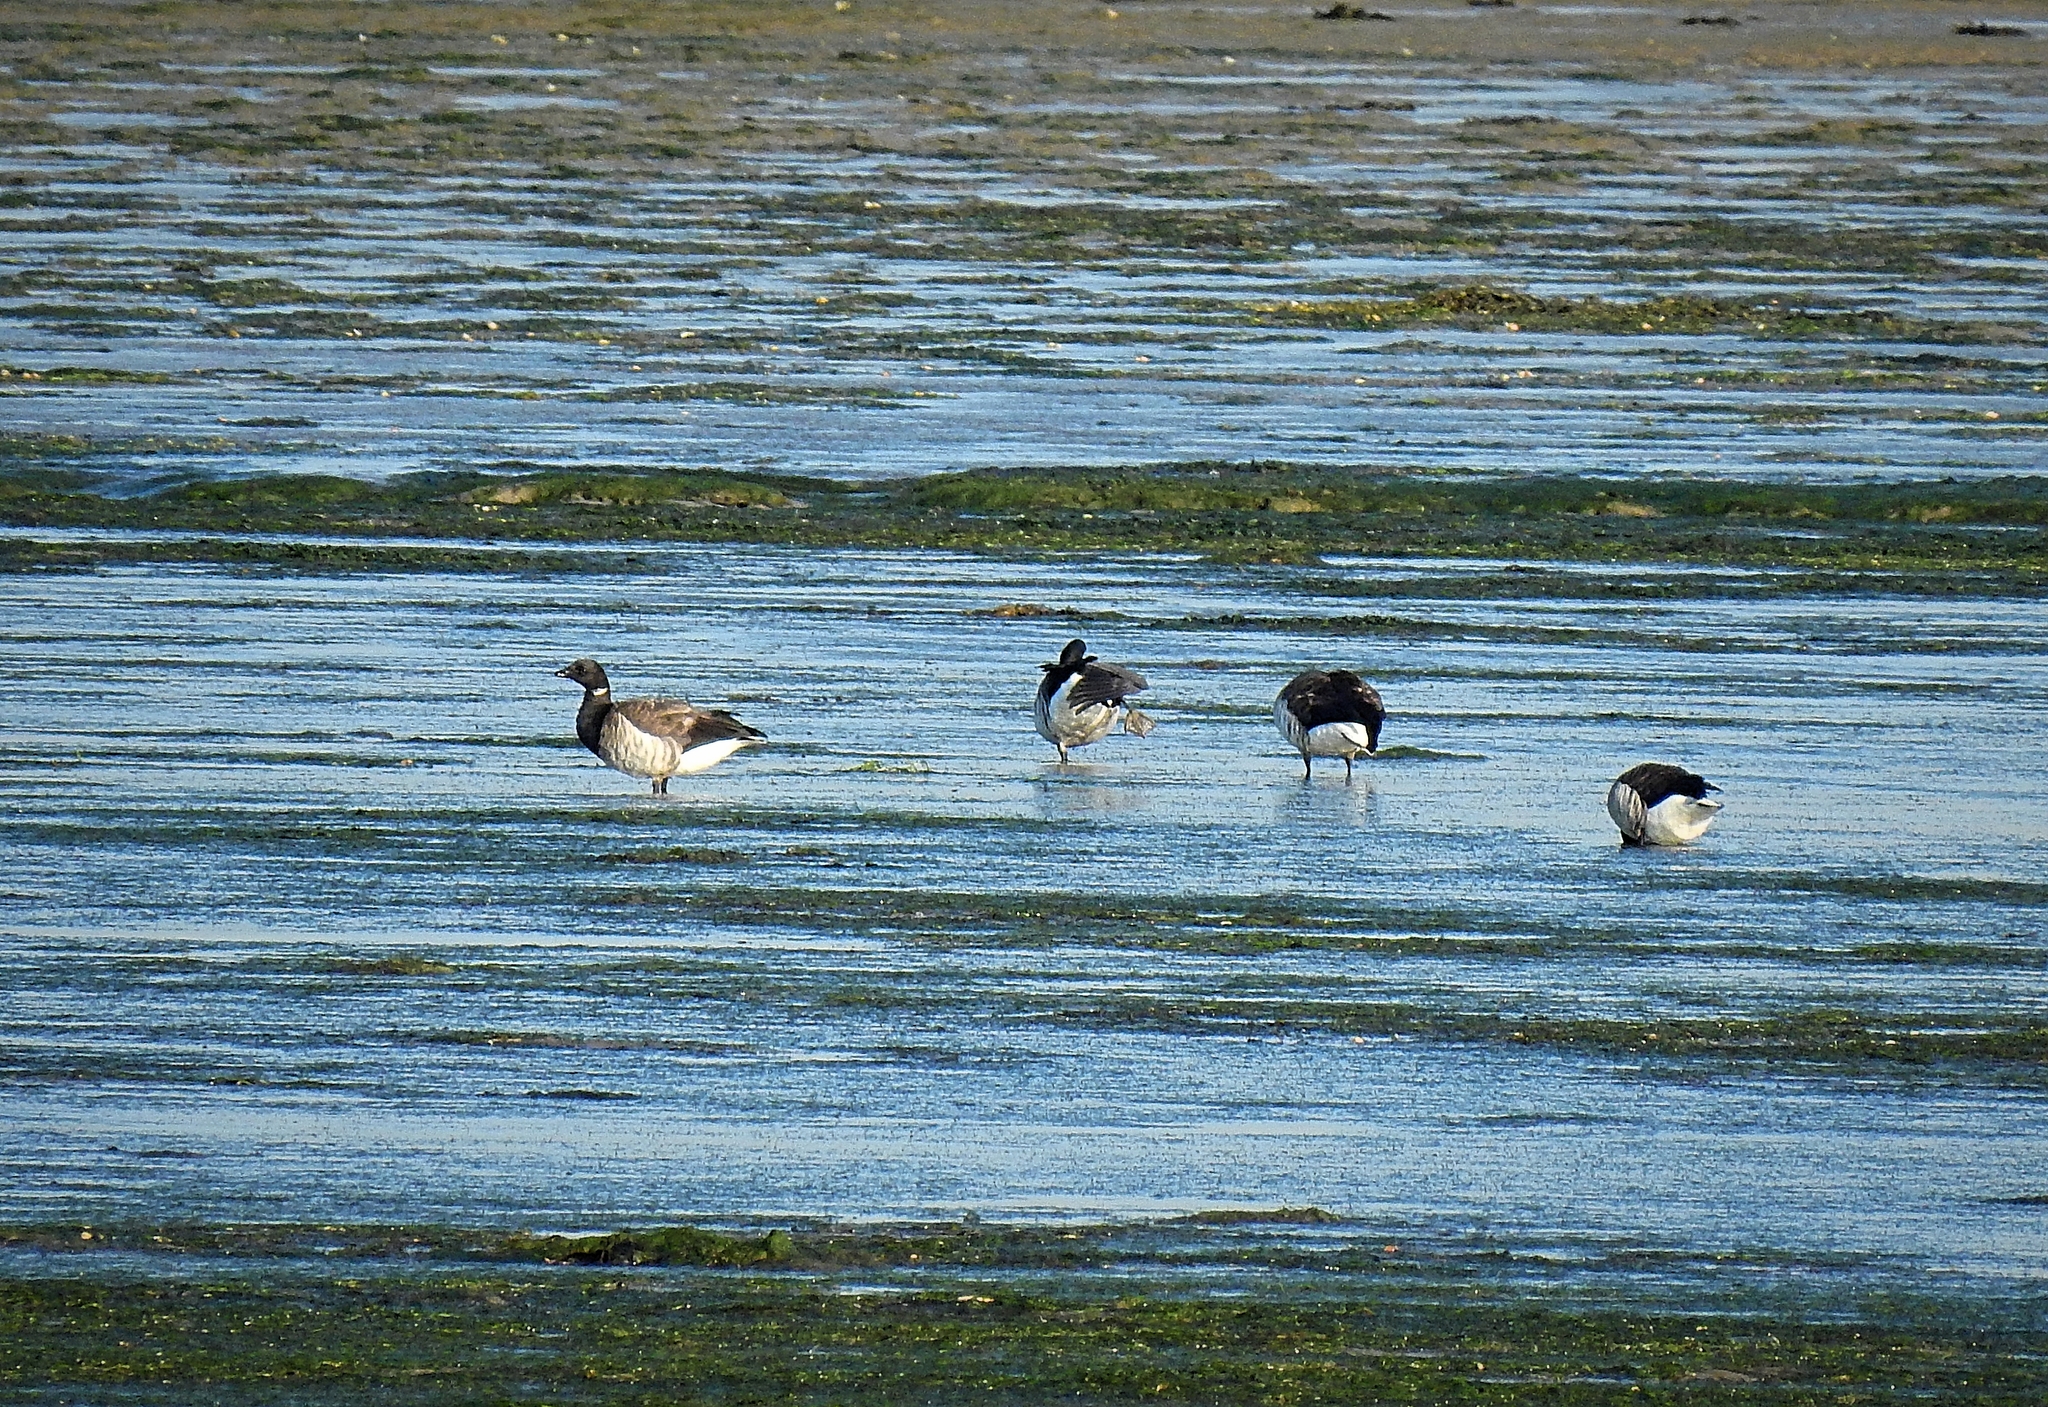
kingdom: Animalia
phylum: Chordata
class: Aves
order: Anseriformes
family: Anatidae
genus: Branta
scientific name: Branta bernicla
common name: Brant goose
